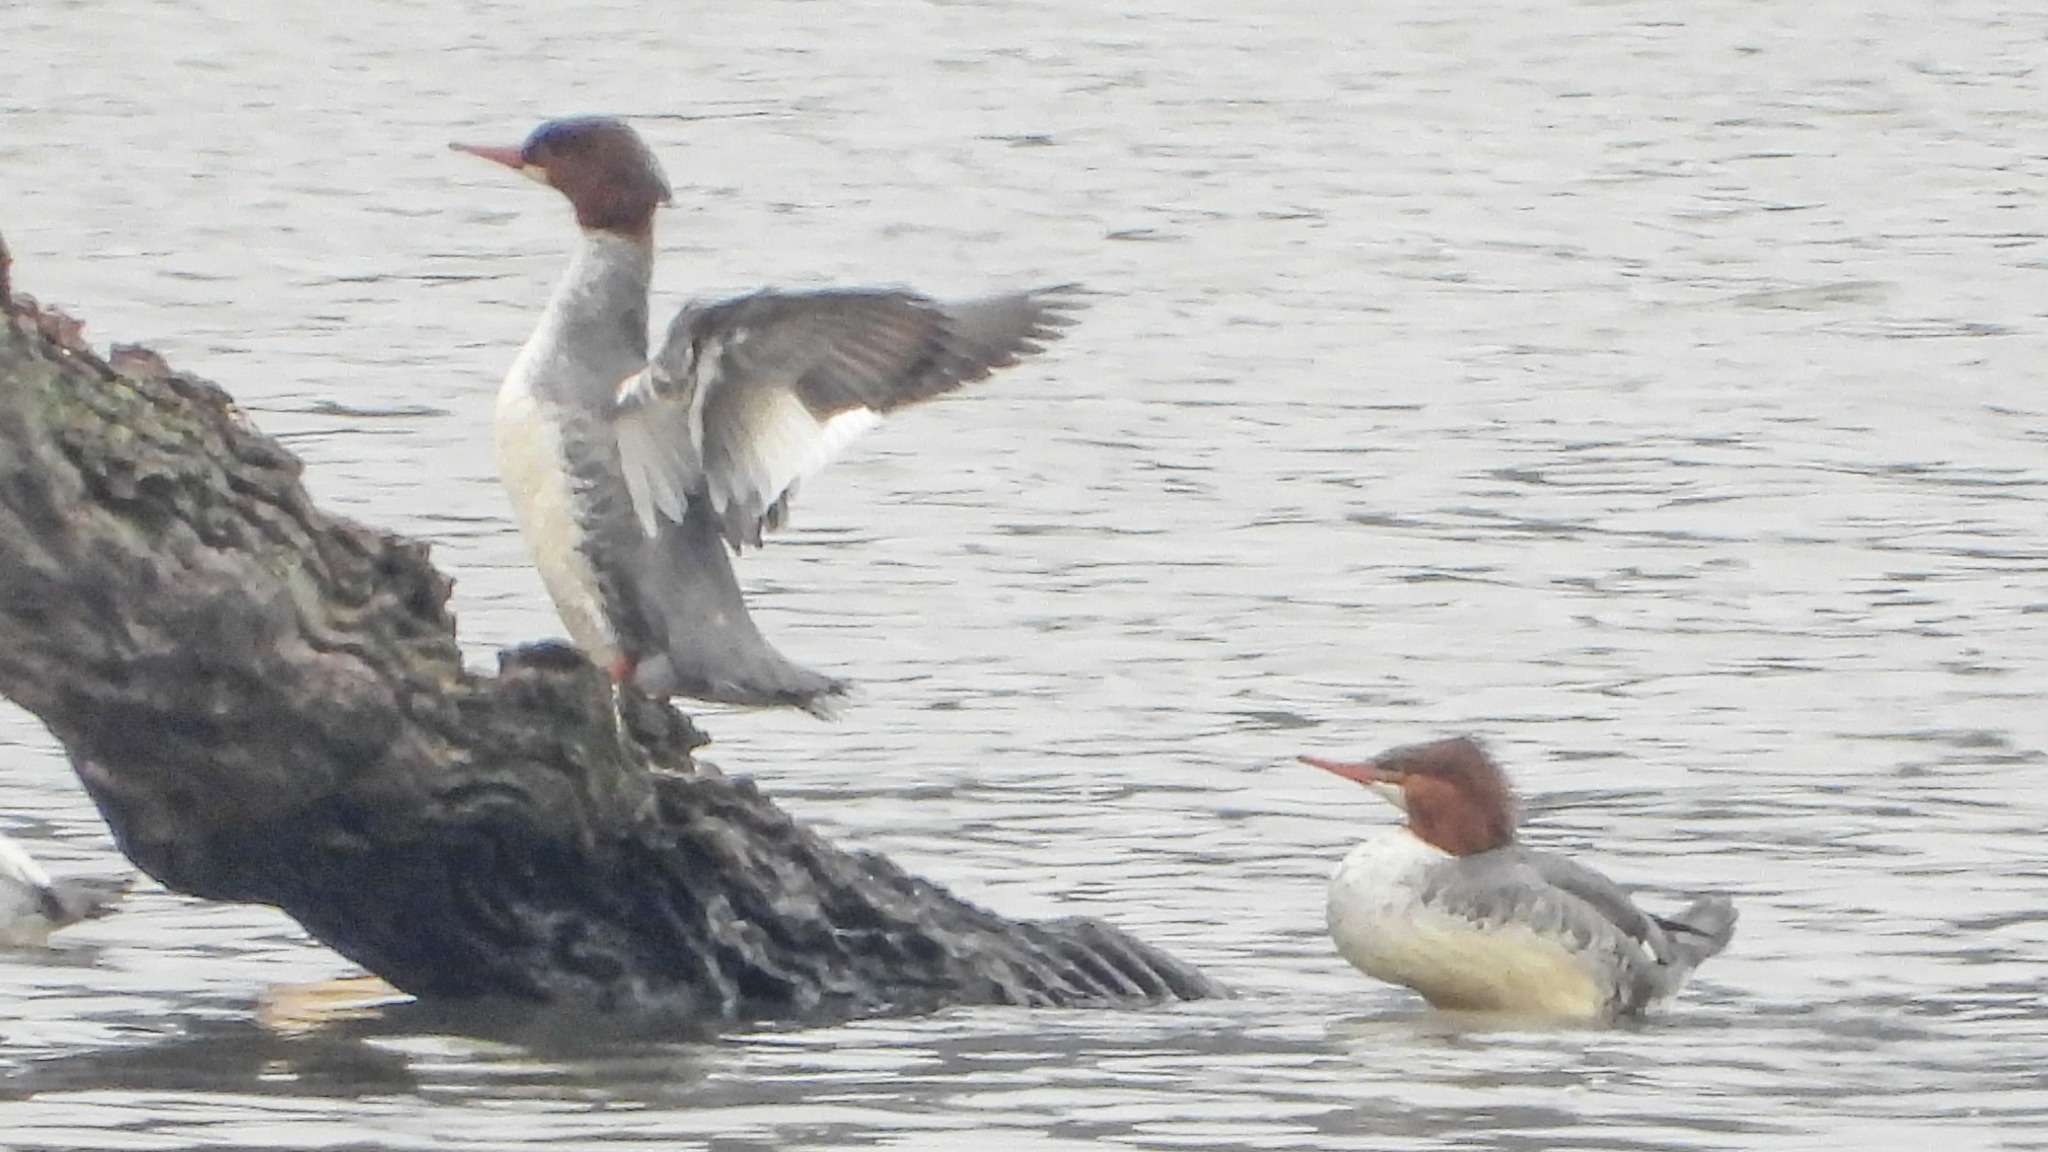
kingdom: Animalia
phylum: Chordata
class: Aves
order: Anseriformes
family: Anatidae
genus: Mergus
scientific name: Mergus merganser
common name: Common merganser
